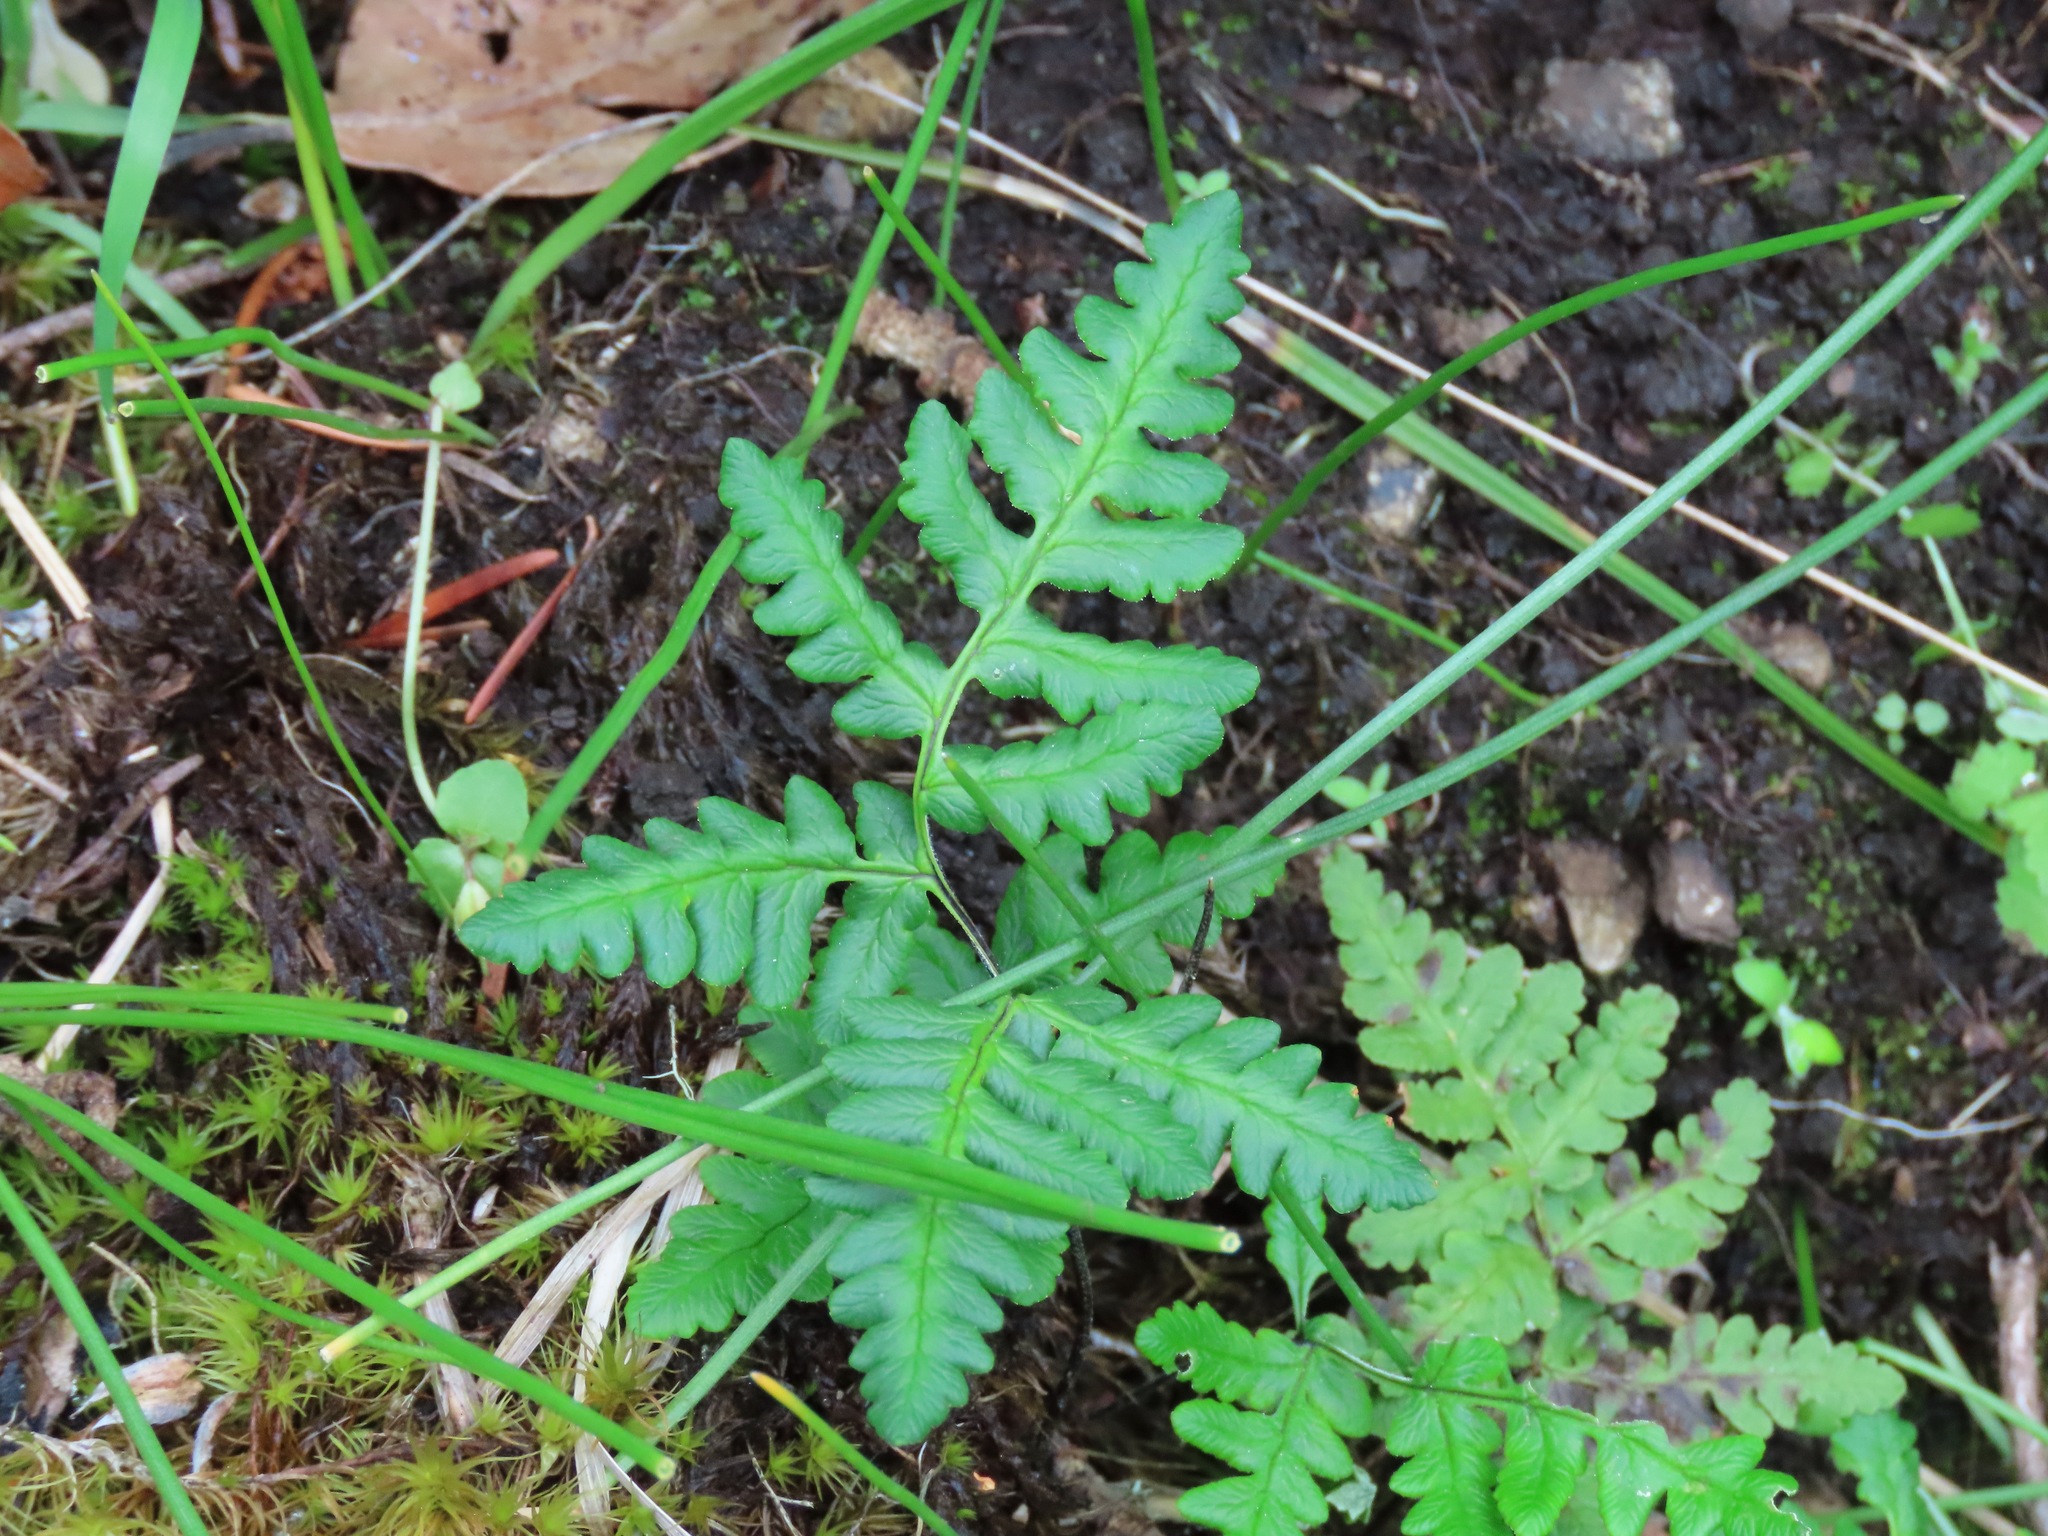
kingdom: Plantae
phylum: Tracheophyta
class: Polypodiopsida
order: Polypodiales
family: Pteridaceae
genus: Pentagramma
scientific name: Pentagramma triangularis
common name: Gold fern
